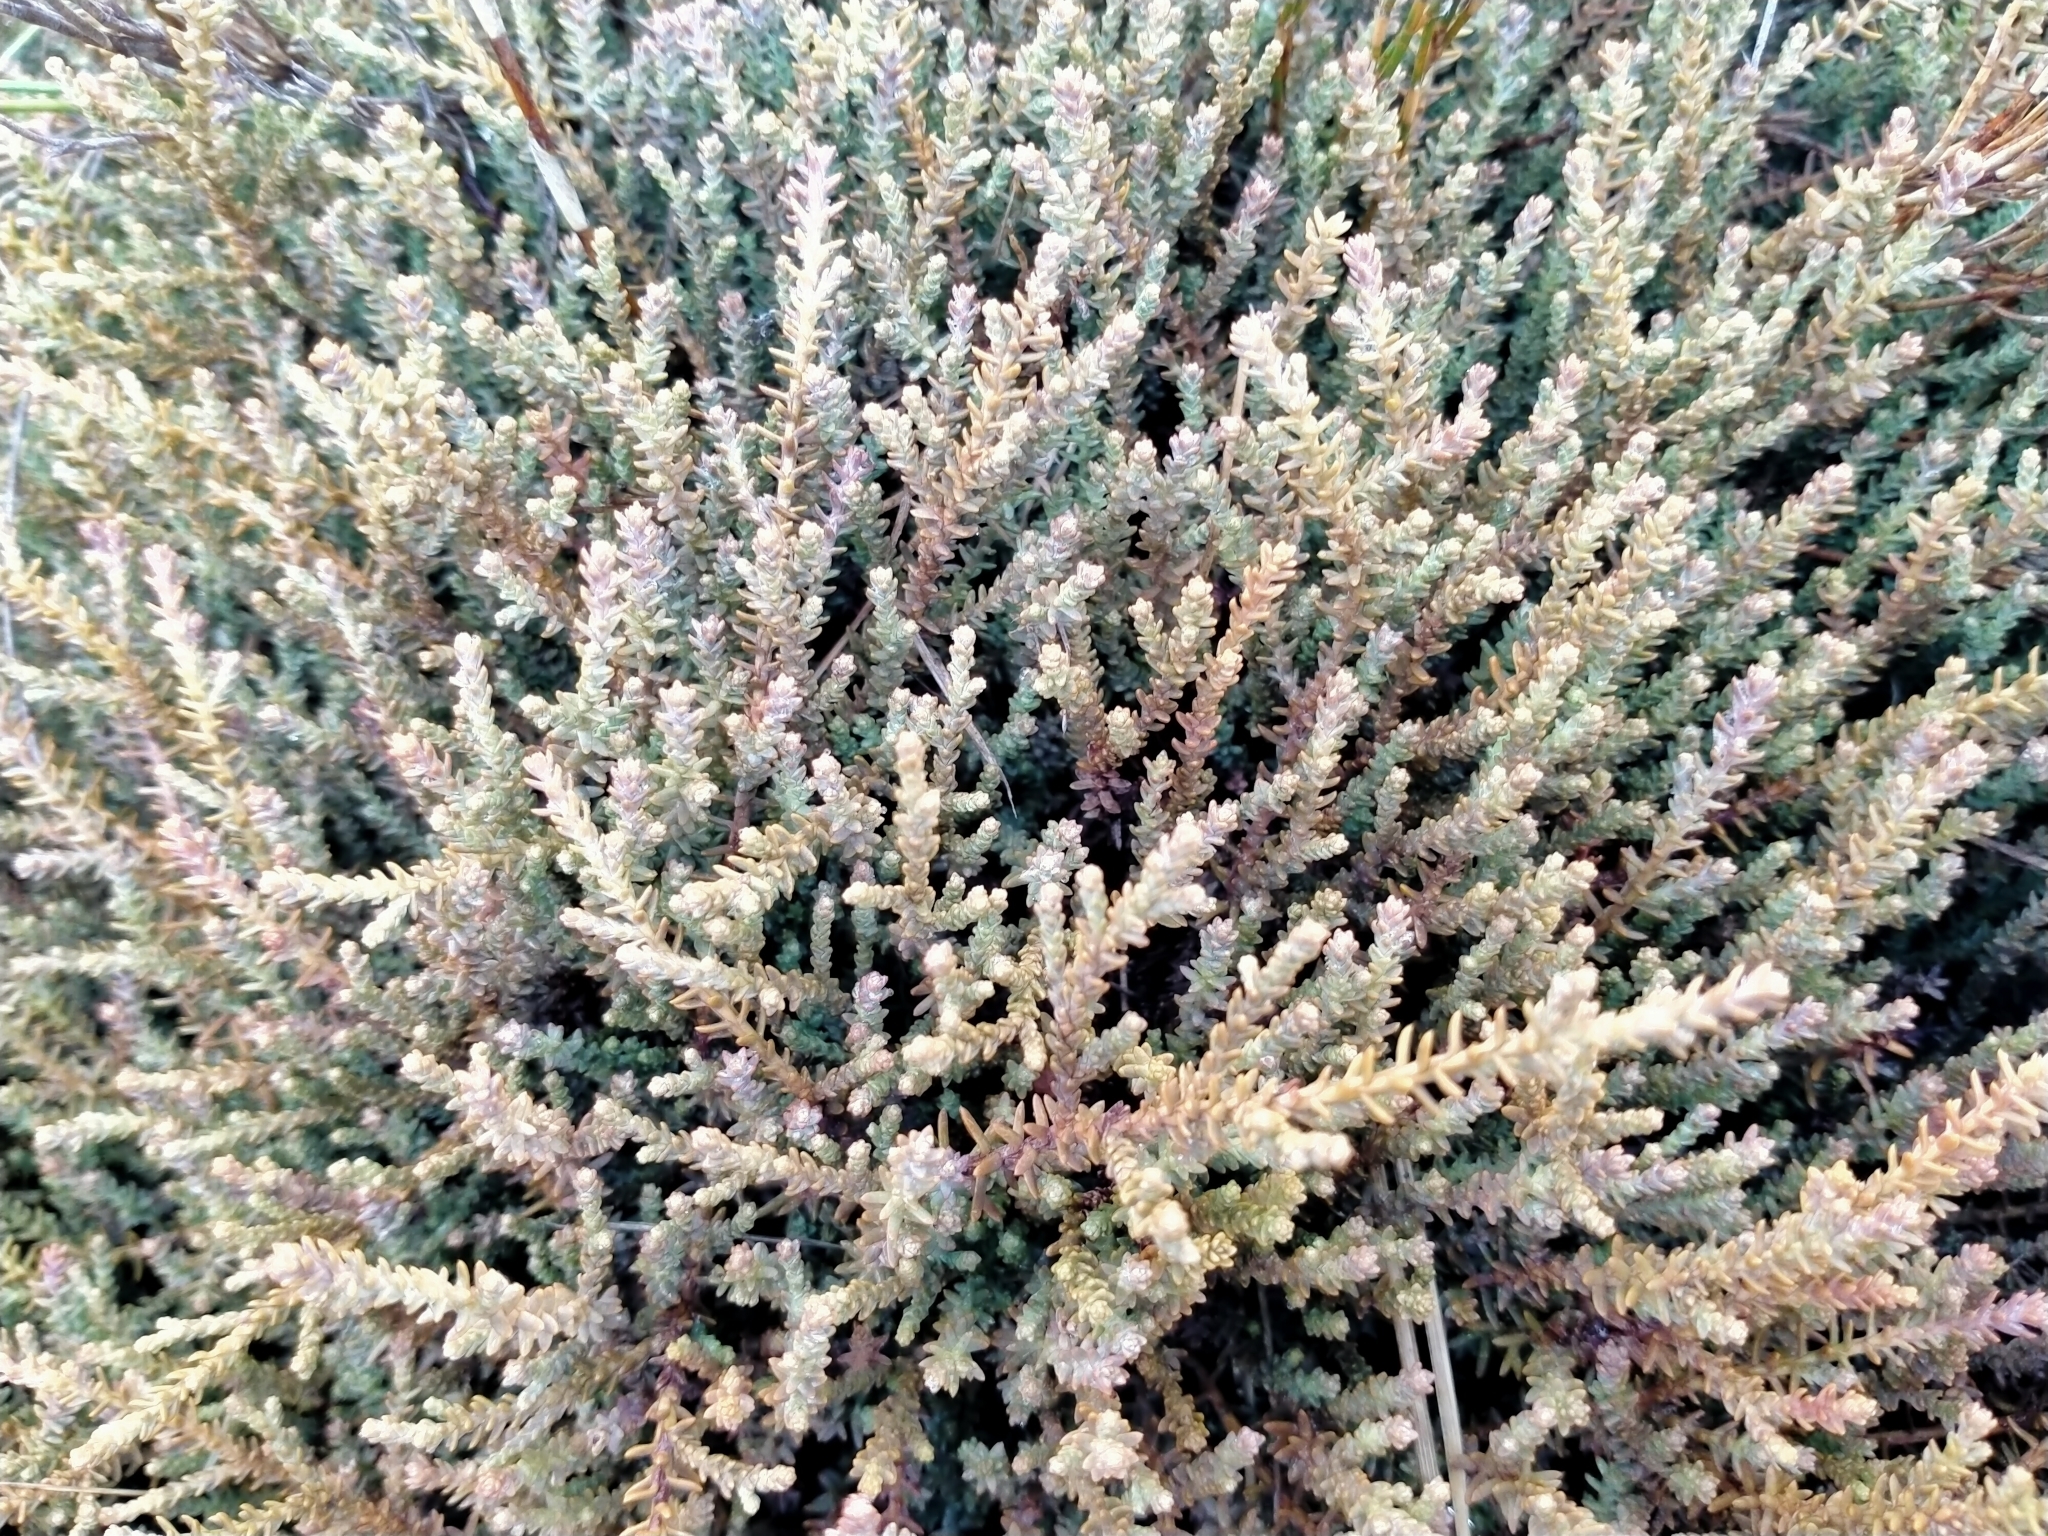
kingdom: Plantae
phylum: Tracheophyta
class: Pinopsida
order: Pinales
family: Podocarpaceae
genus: Lepidothamnus
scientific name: Lepidothamnus laxifolius
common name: Pygmy pine
